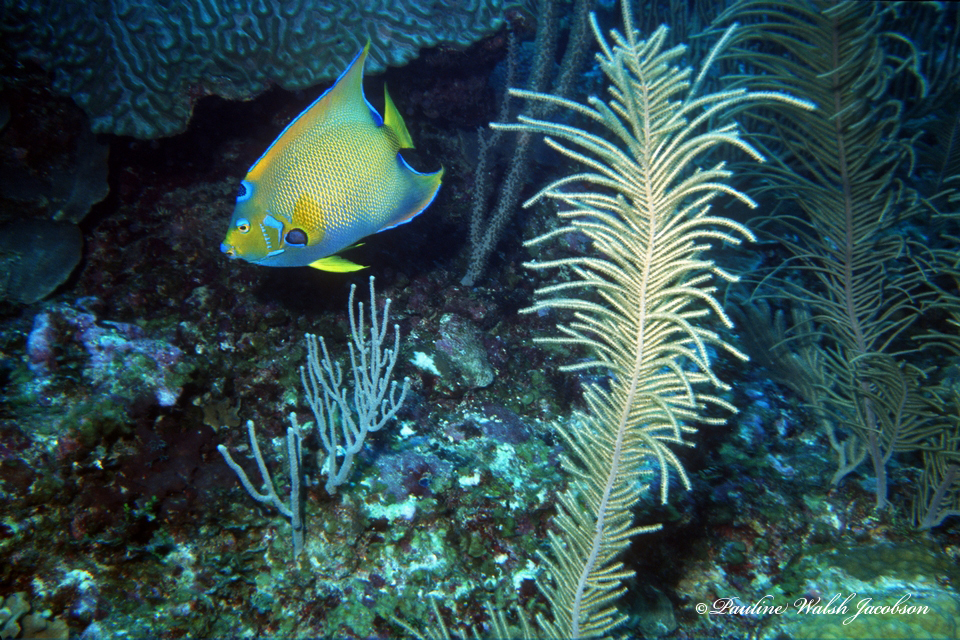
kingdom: Animalia
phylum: Chordata
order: Perciformes
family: Pomacanthidae
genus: Holacanthus
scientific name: Holacanthus ciliaris
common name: Queen angelfish
